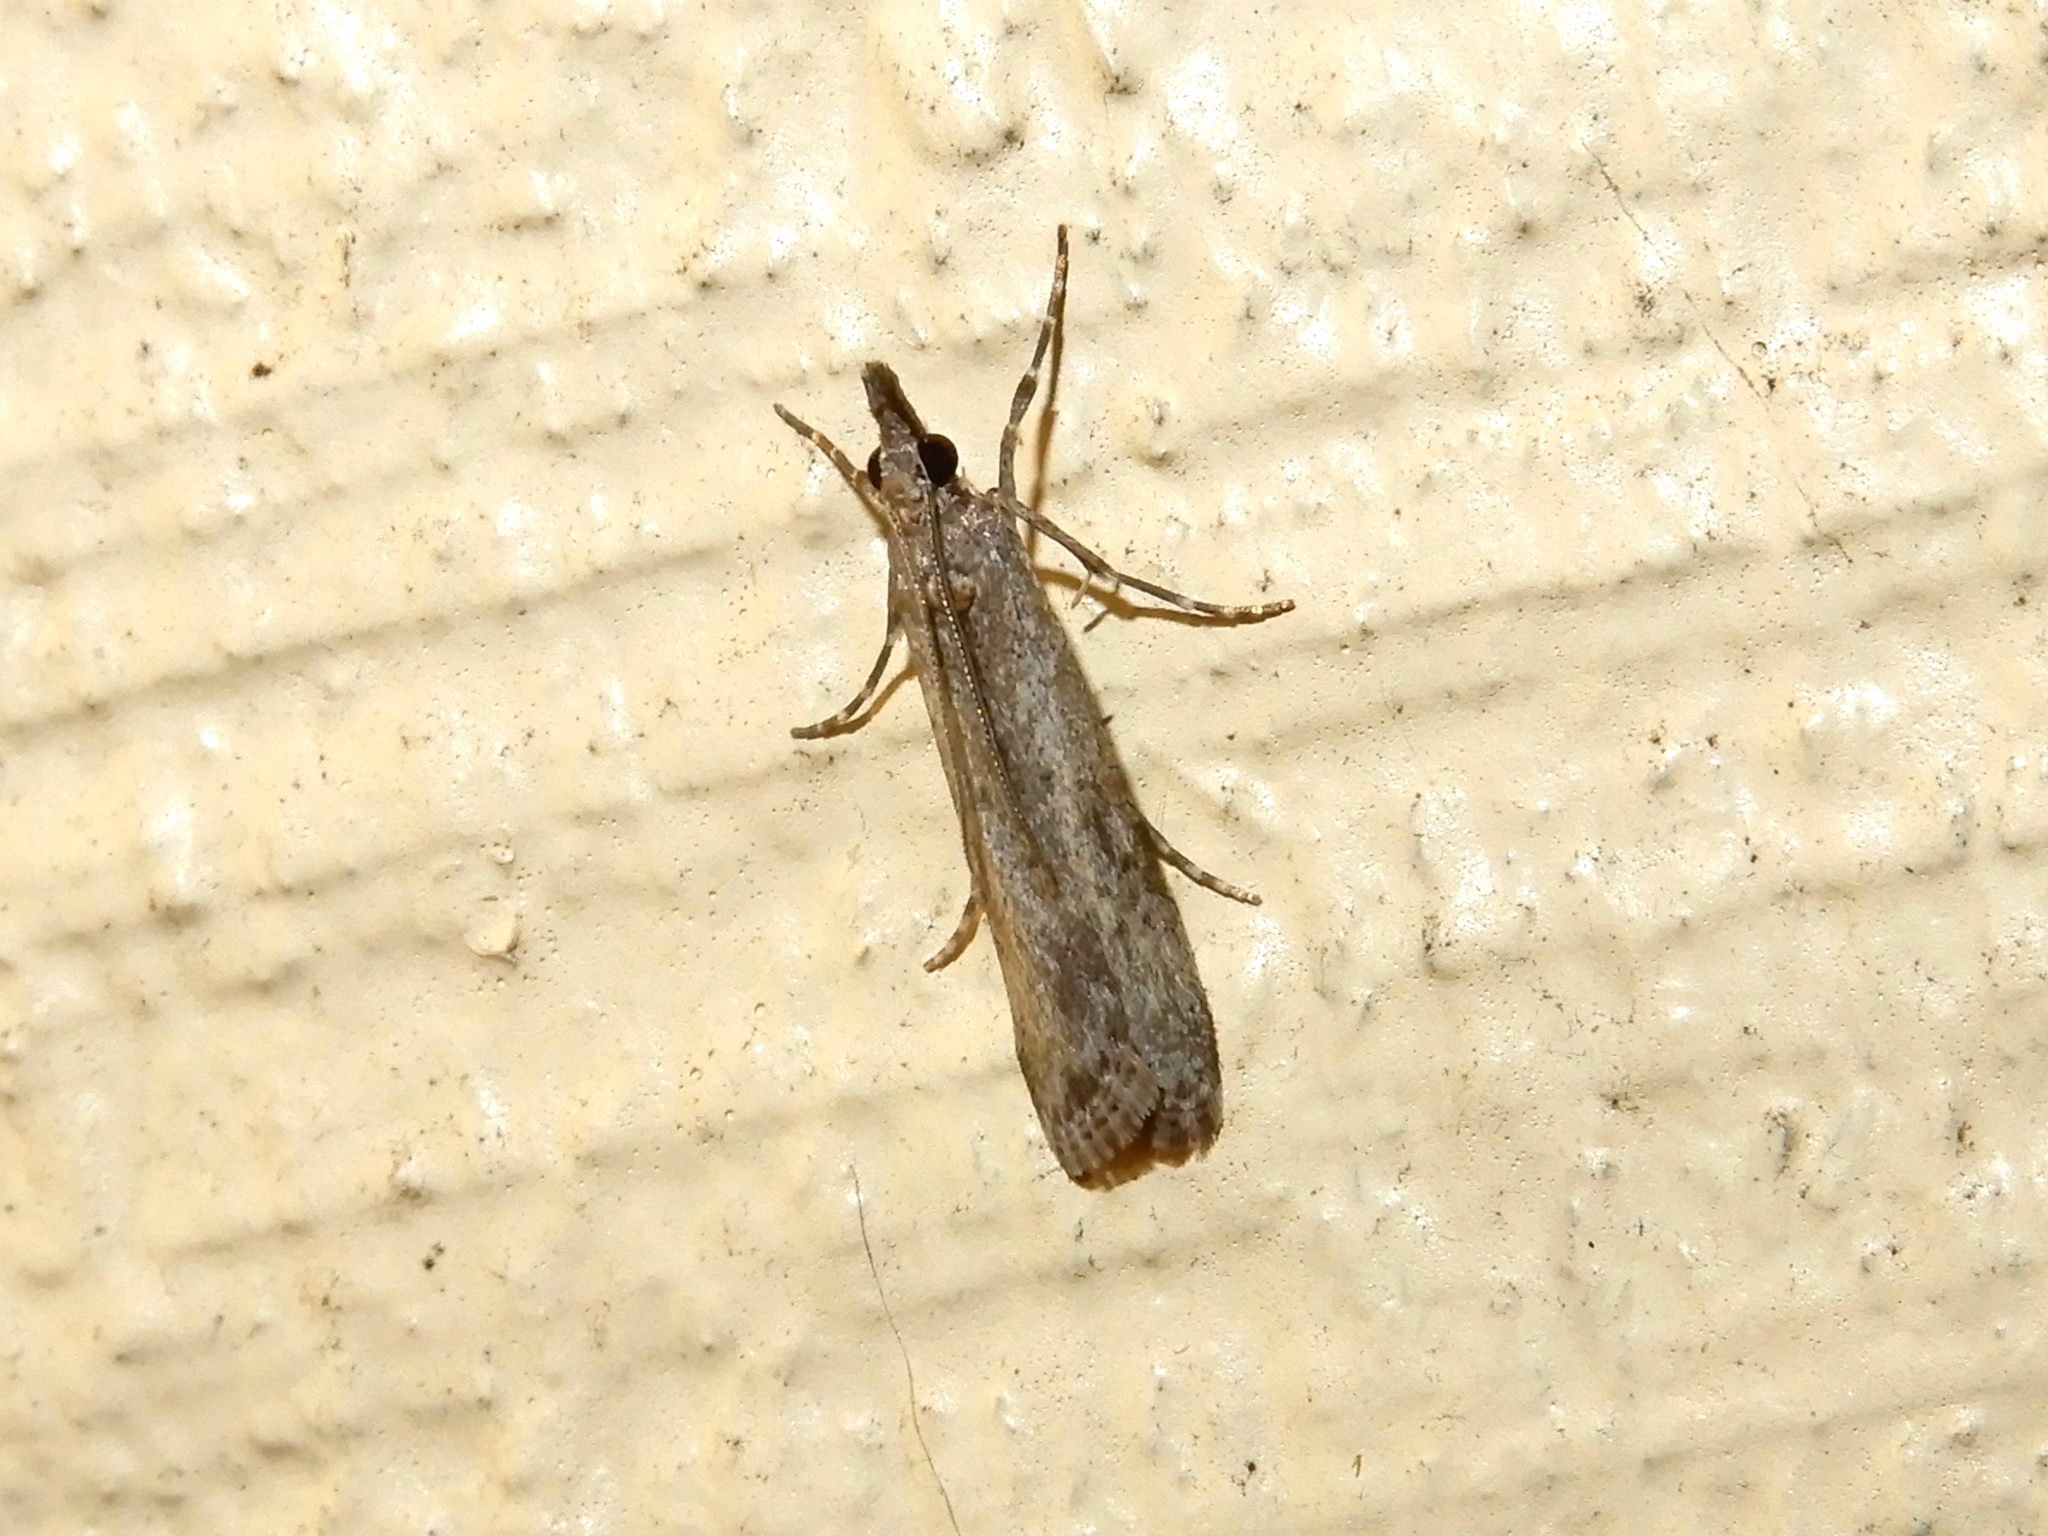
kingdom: Animalia
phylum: Arthropoda
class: Insecta
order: Lepidoptera
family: Crambidae
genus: Eudonia
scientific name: Eudonia leptalea
